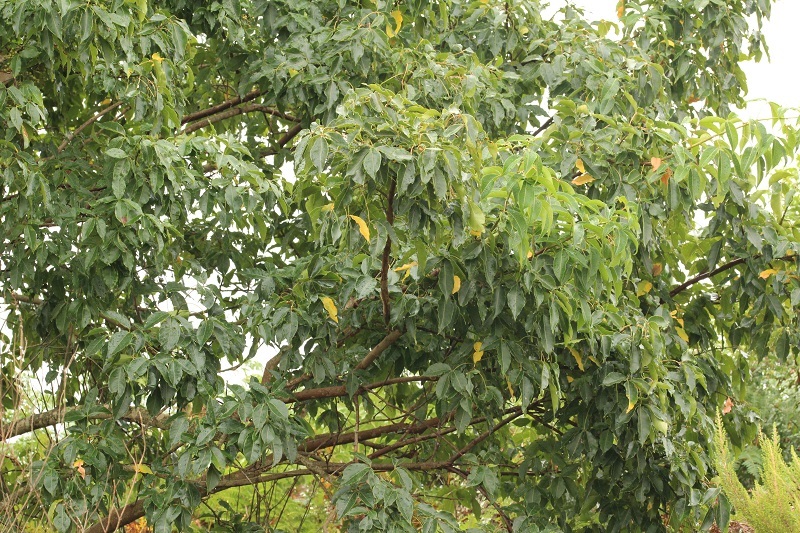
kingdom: Plantae
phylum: Tracheophyta
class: Magnoliopsida
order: Sapindales
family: Anacardiaceae
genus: Searsia
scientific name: Searsia chirindensis
